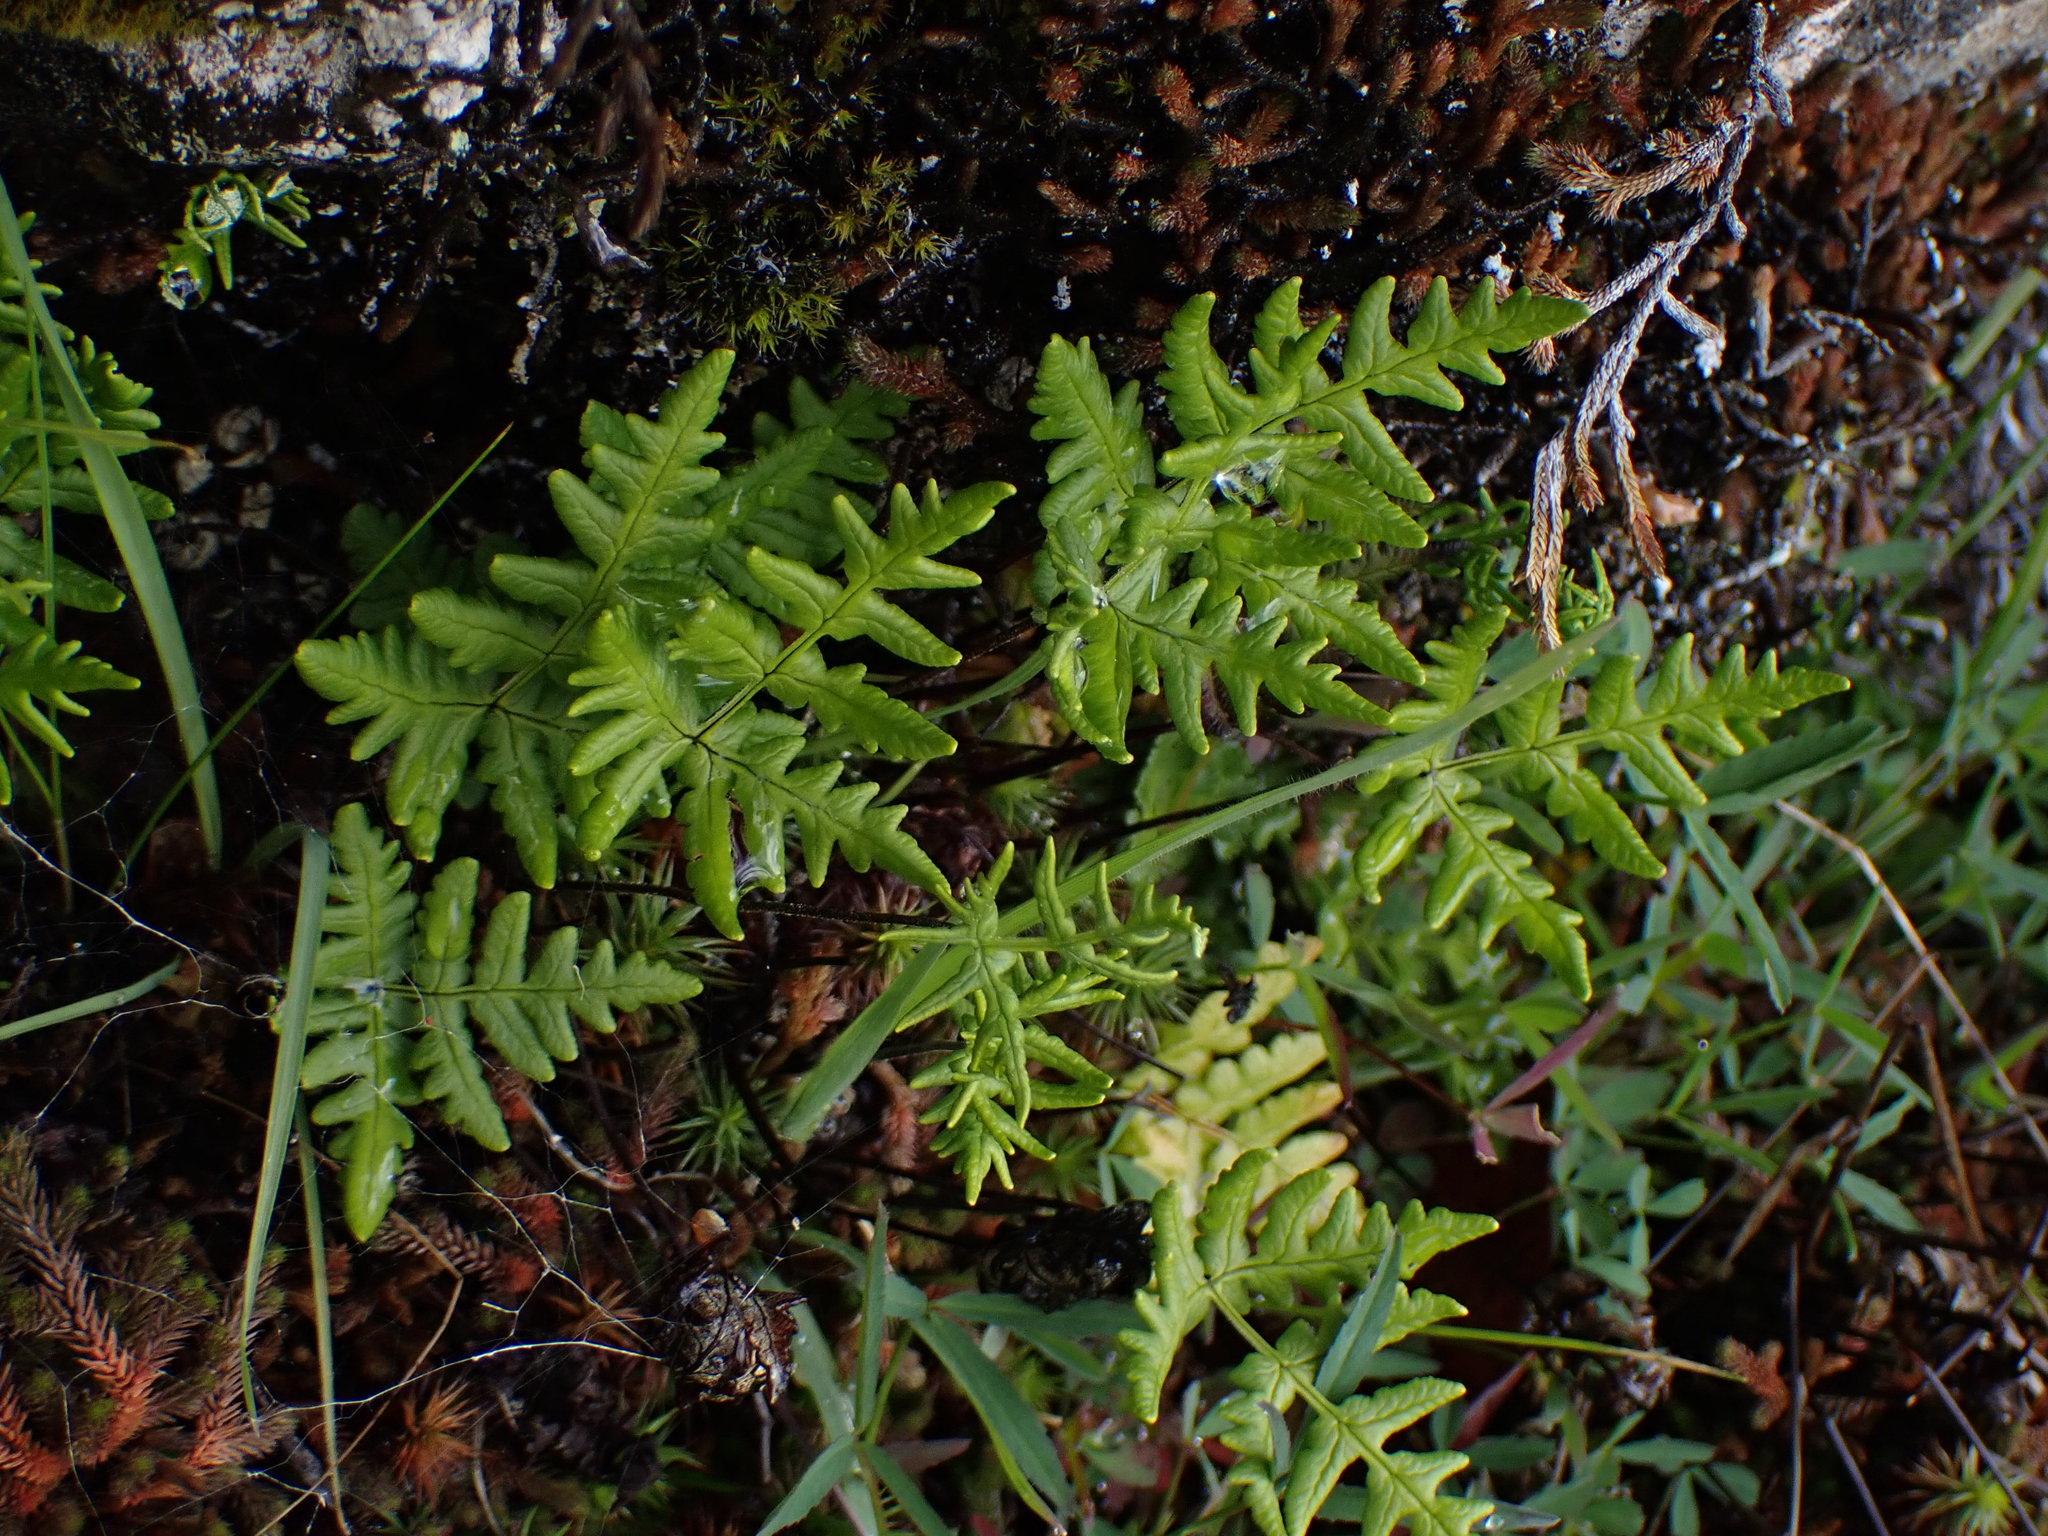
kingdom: Plantae
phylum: Tracheophyta
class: Polypodiopsida
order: Polypodiales
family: Pteridaceae
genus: Pentagramma
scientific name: Pentagramma triangularis
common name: Gold fern
